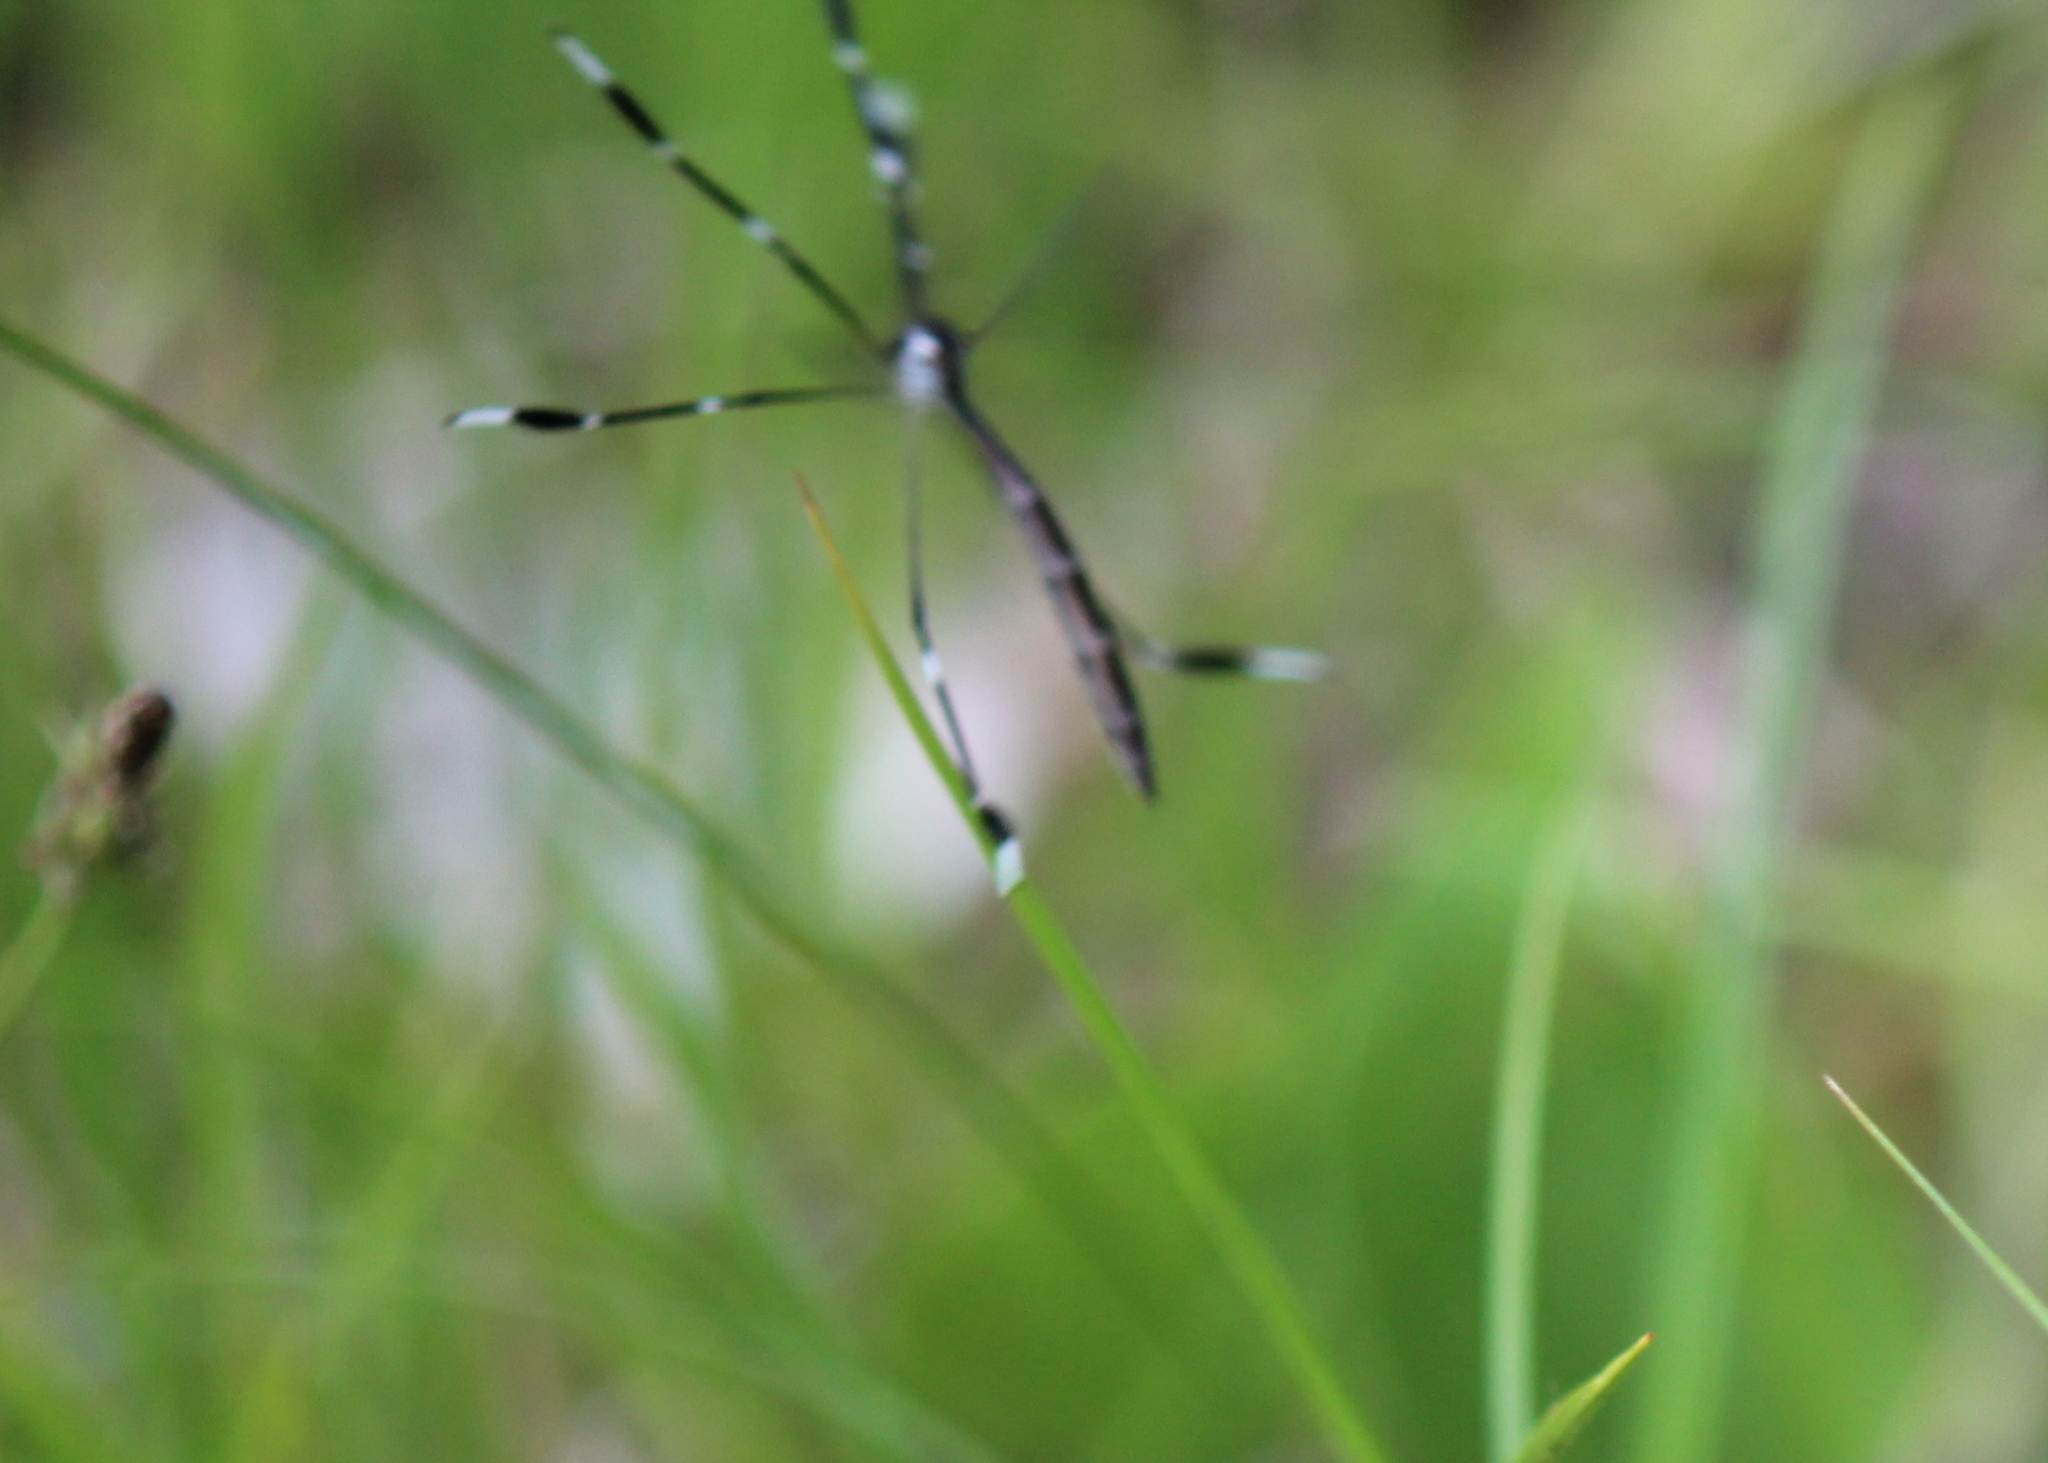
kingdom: Animalia
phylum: Arthropoda
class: Insecta
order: Diptera
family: Ptychopteridae
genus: Bittacomorpha
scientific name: Bittacomorpha clavipes
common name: Eastern phantom crane fly
